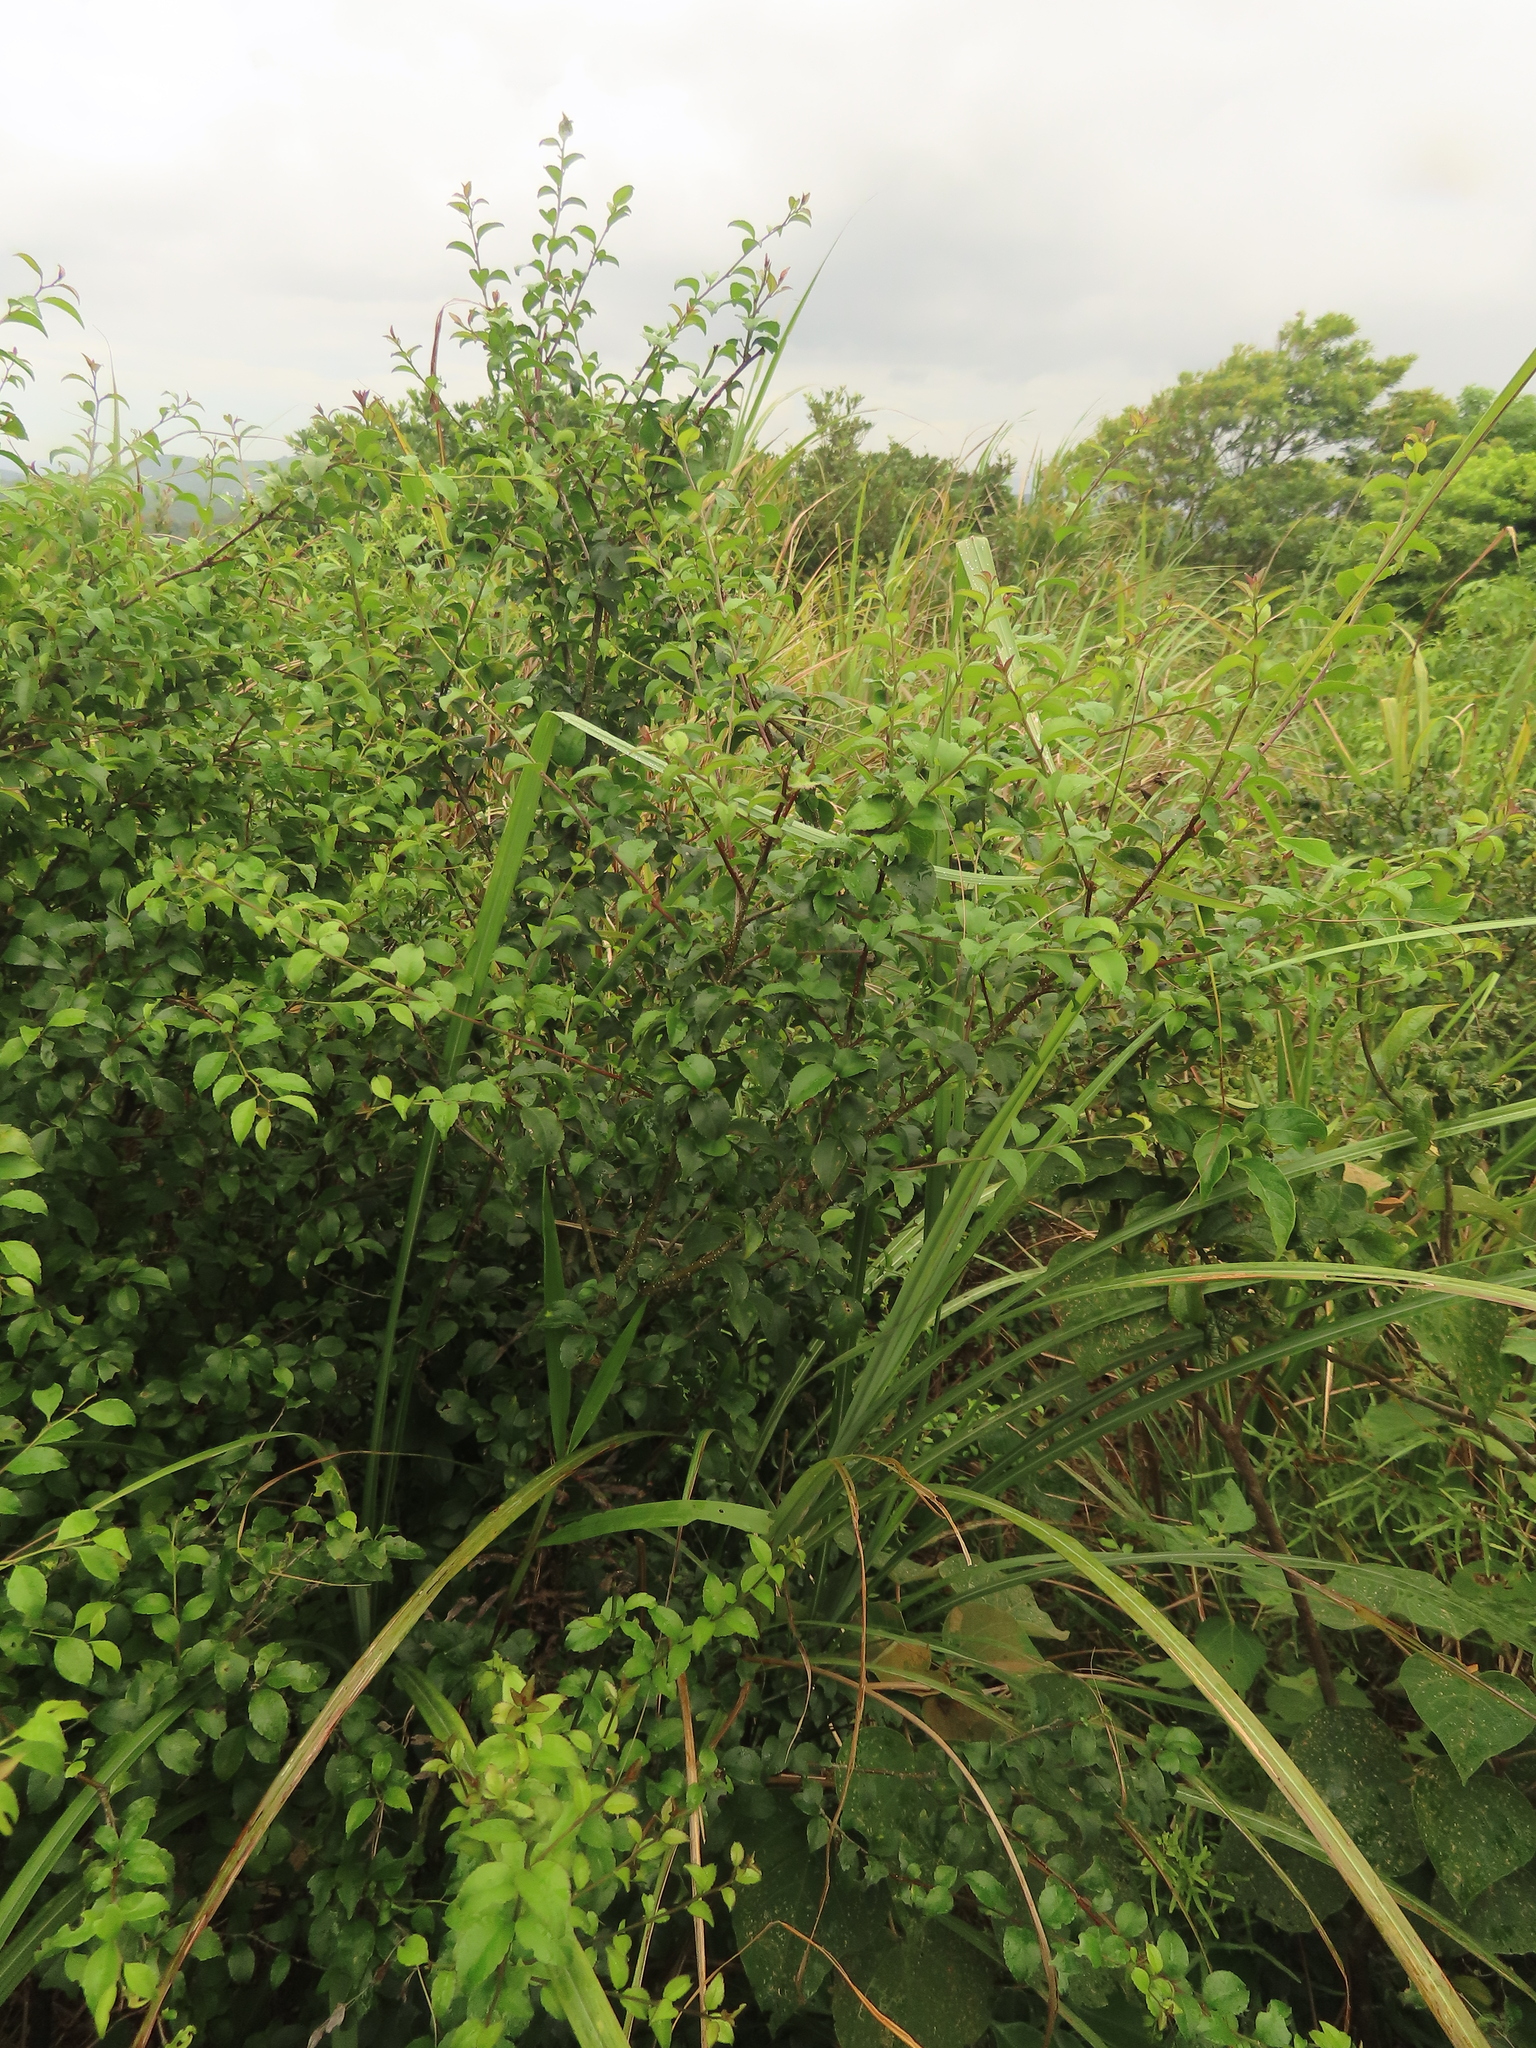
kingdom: Plantae
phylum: Tracheophyta
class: Magnoliopsida
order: Aquifoliales
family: Aquifoliaceae
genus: Ilex
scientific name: Ilex asprella
